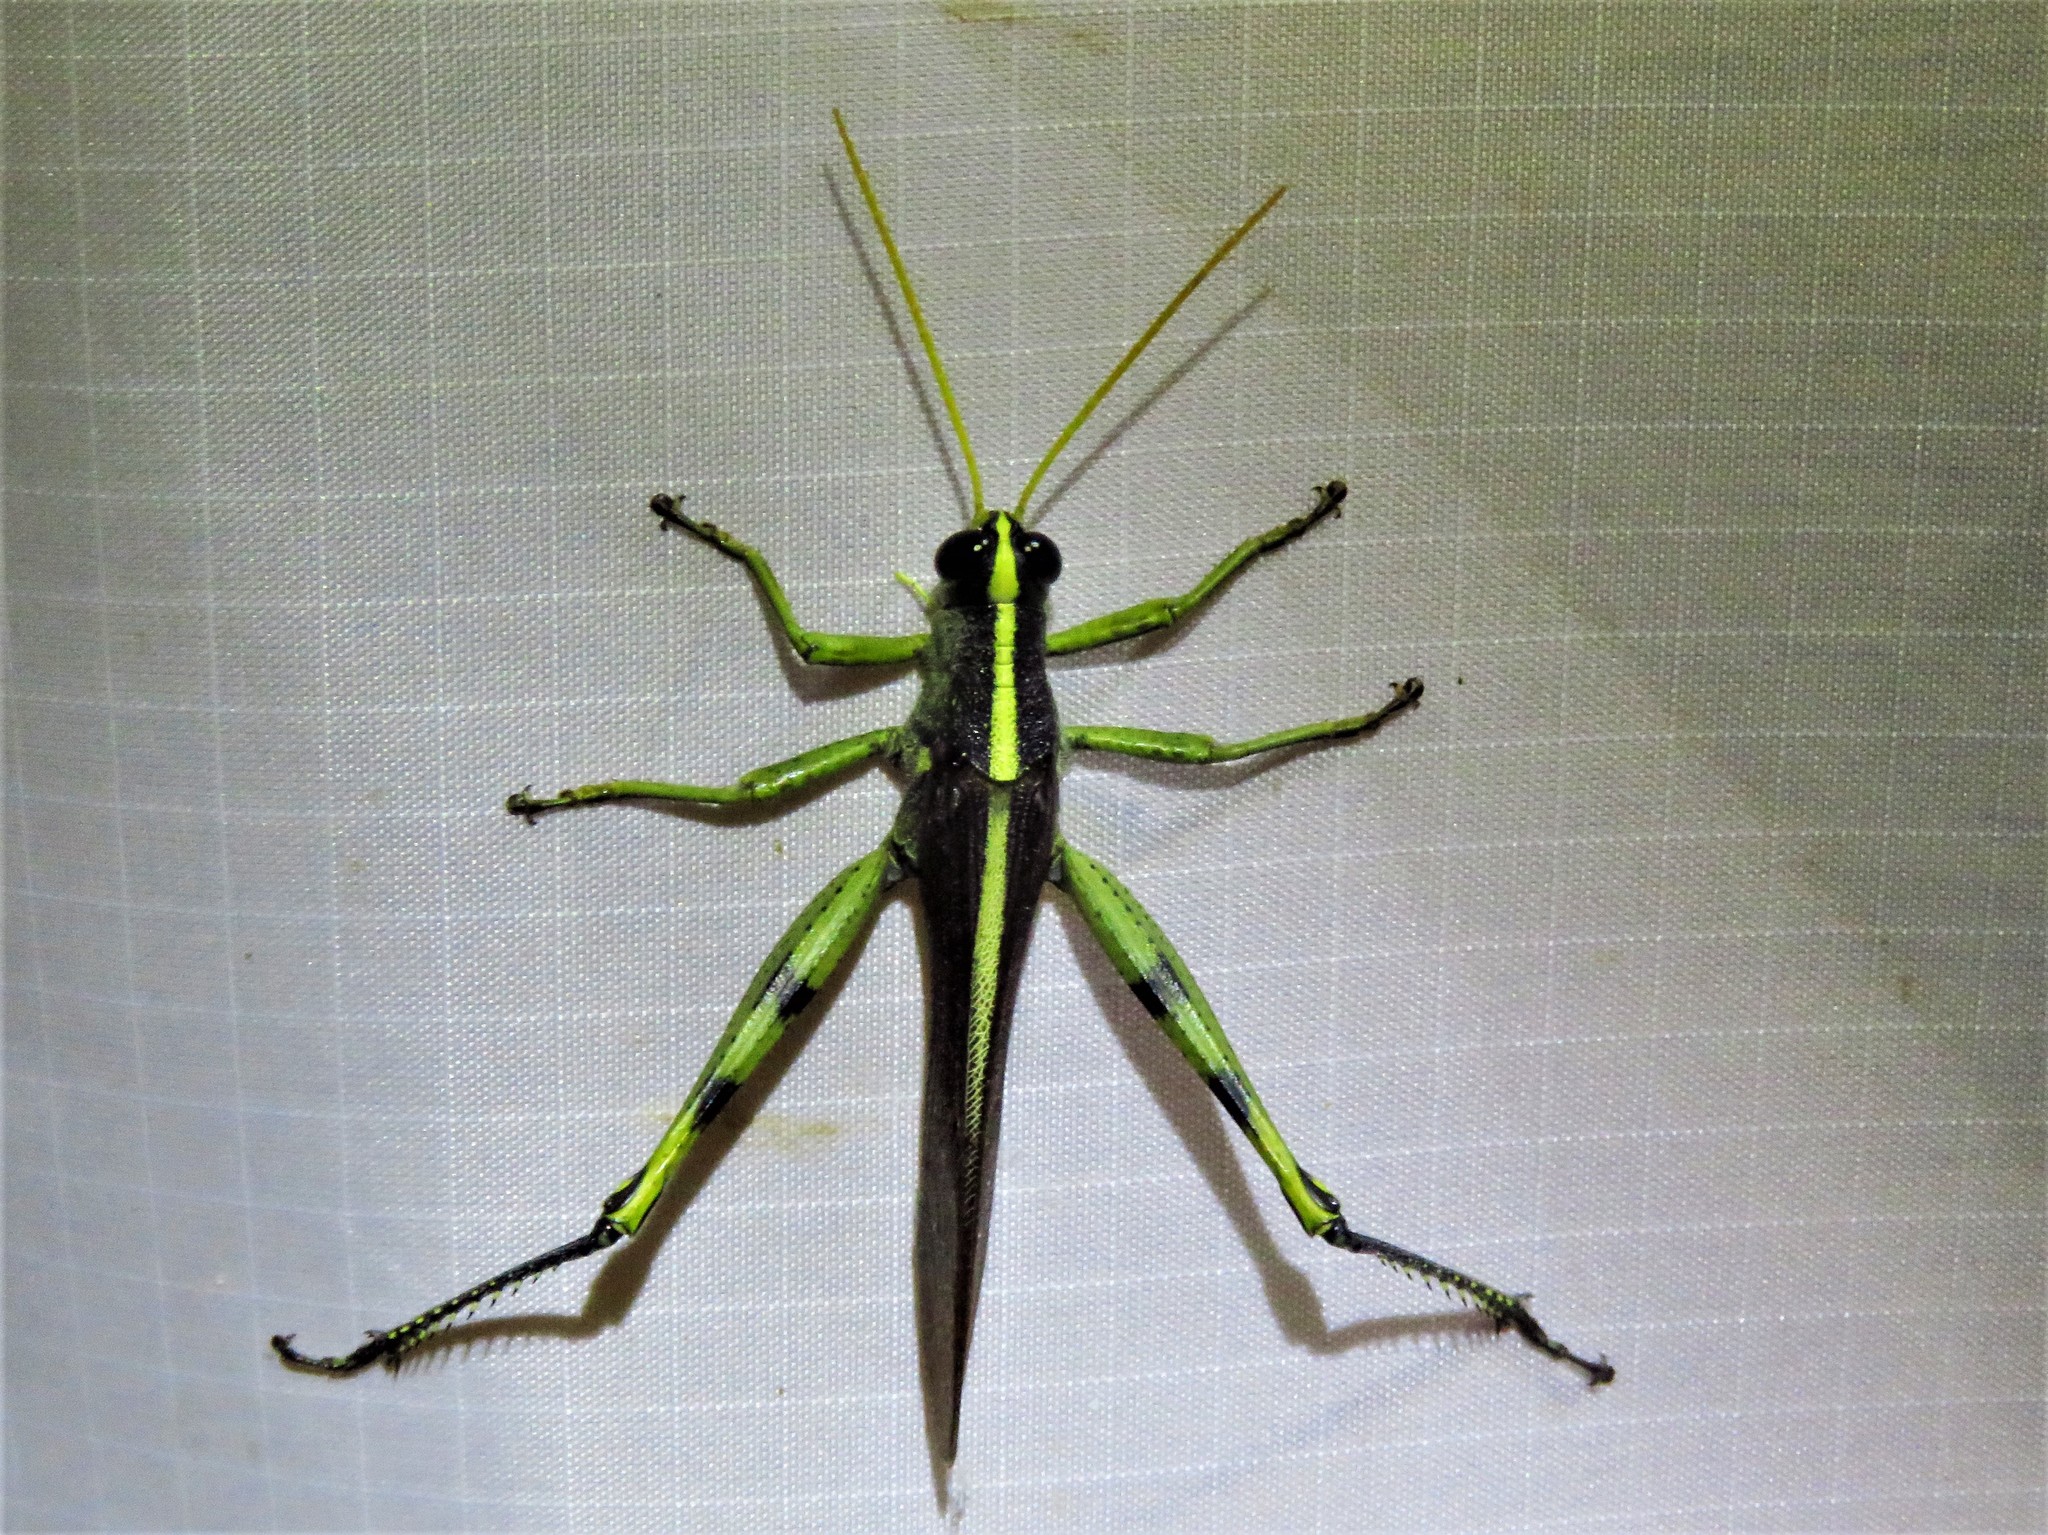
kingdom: Animalia
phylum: Arthropoda
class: Insecta
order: Orthoptera
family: Acrididae
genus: Schistocerca
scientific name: Schistocerca obscura
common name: Obscure bird grasshopper
